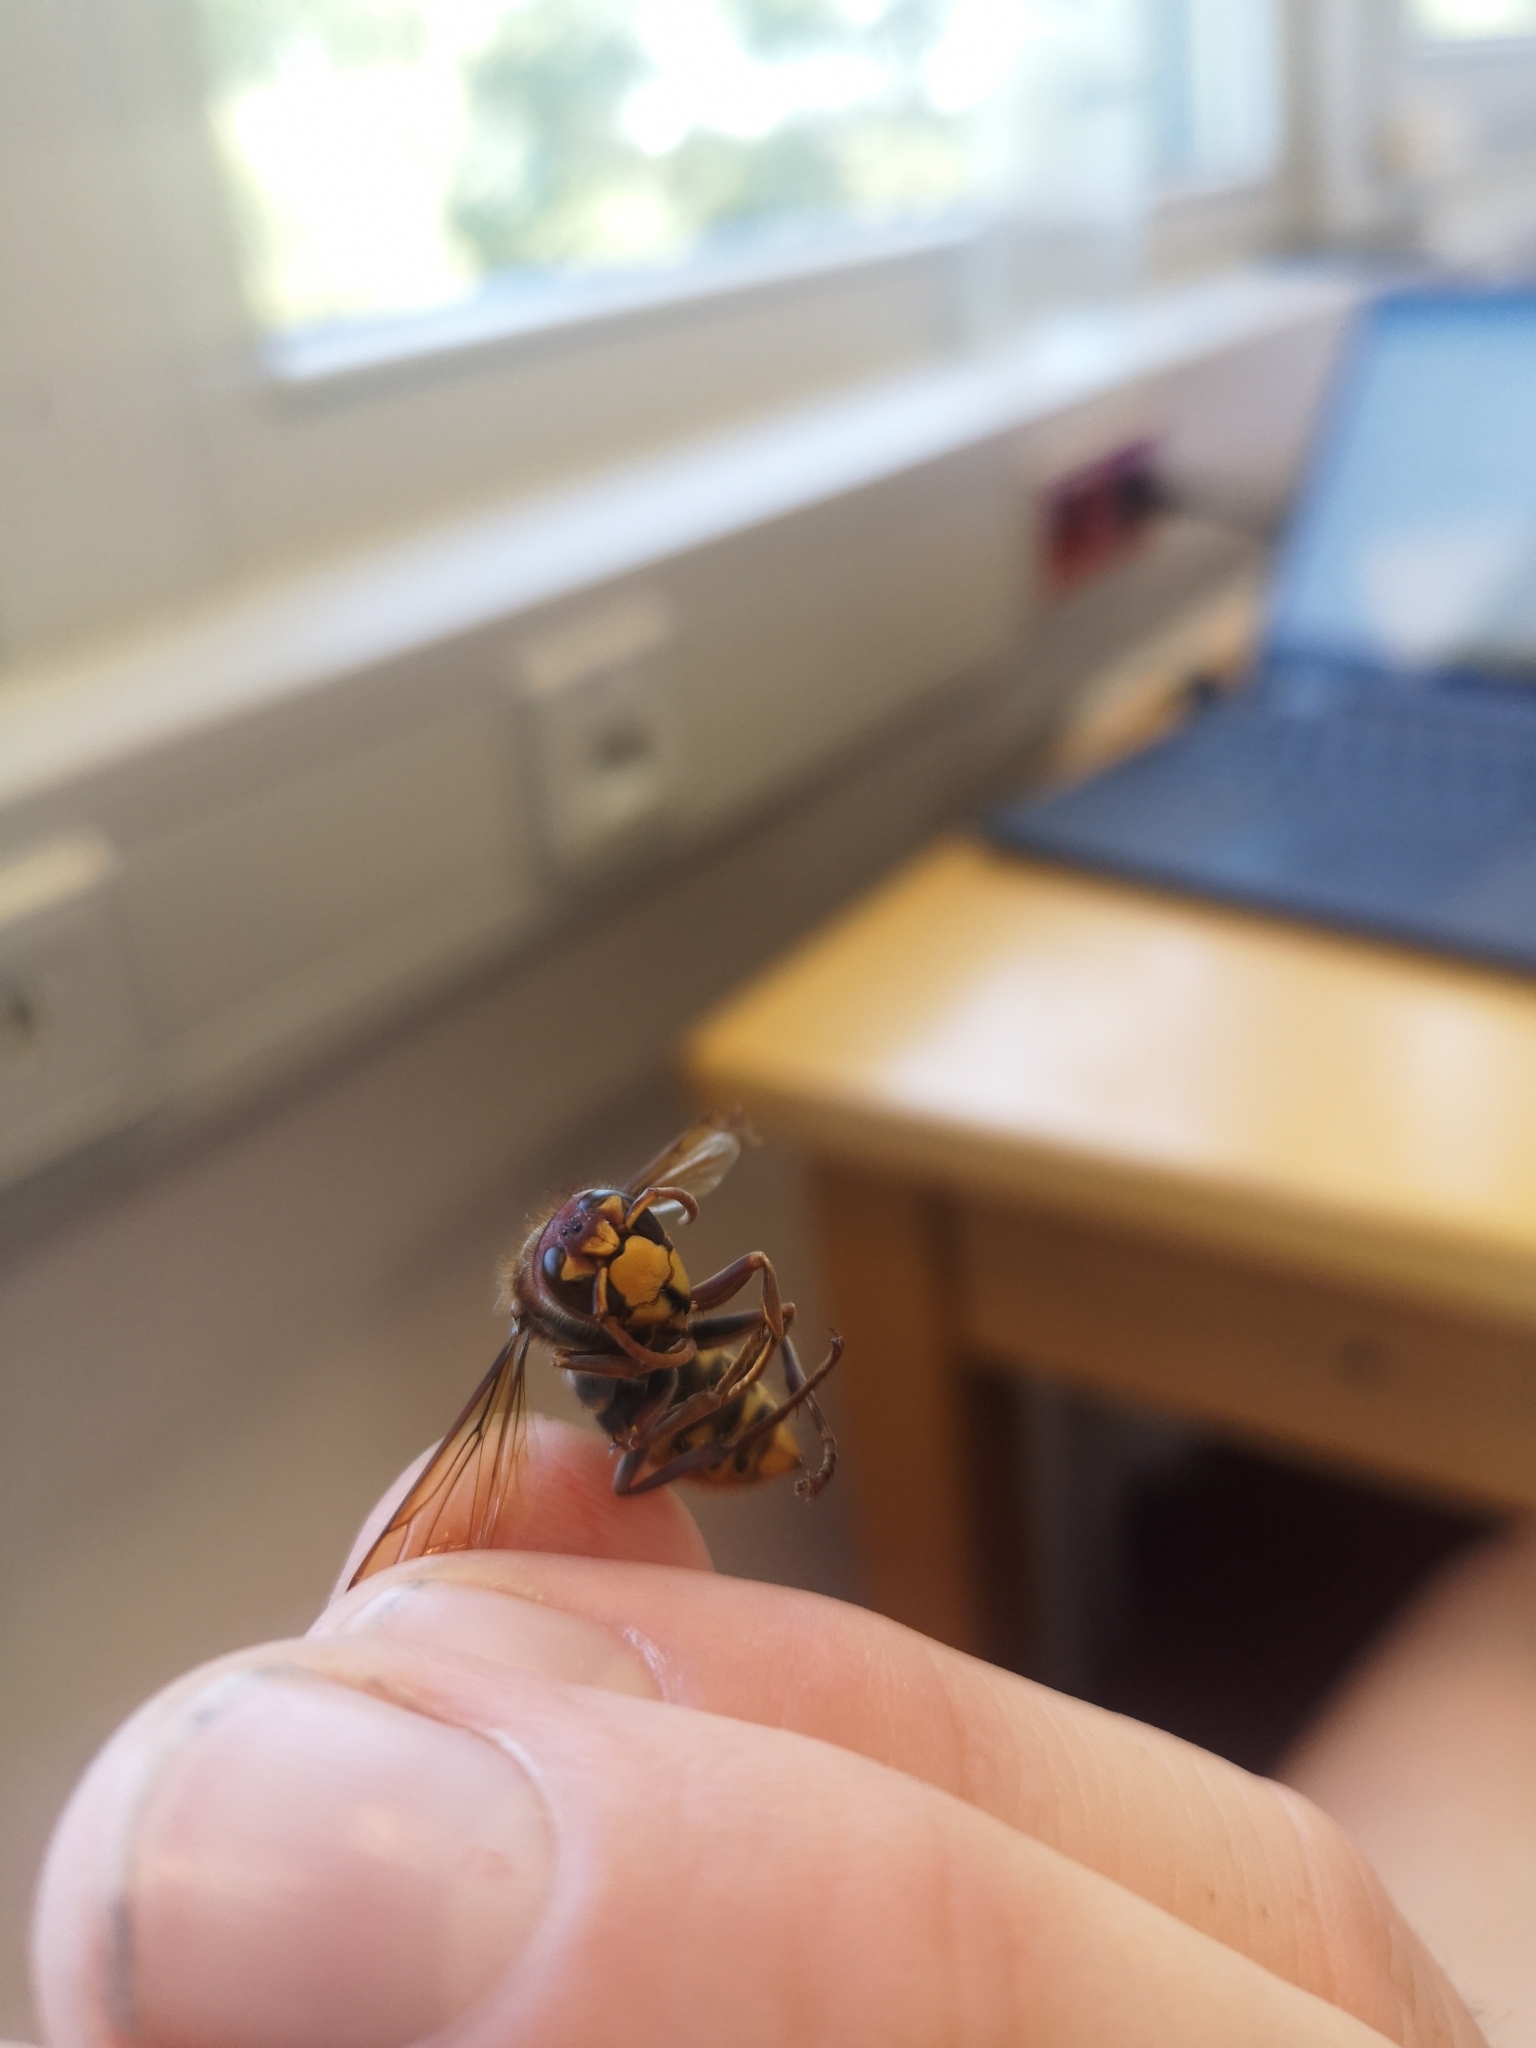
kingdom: Animalia
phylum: Arthropoda
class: Insecta
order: Hymenoptera
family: Vespidae
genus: Vespa
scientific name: Vespa crabro
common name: Hornet
